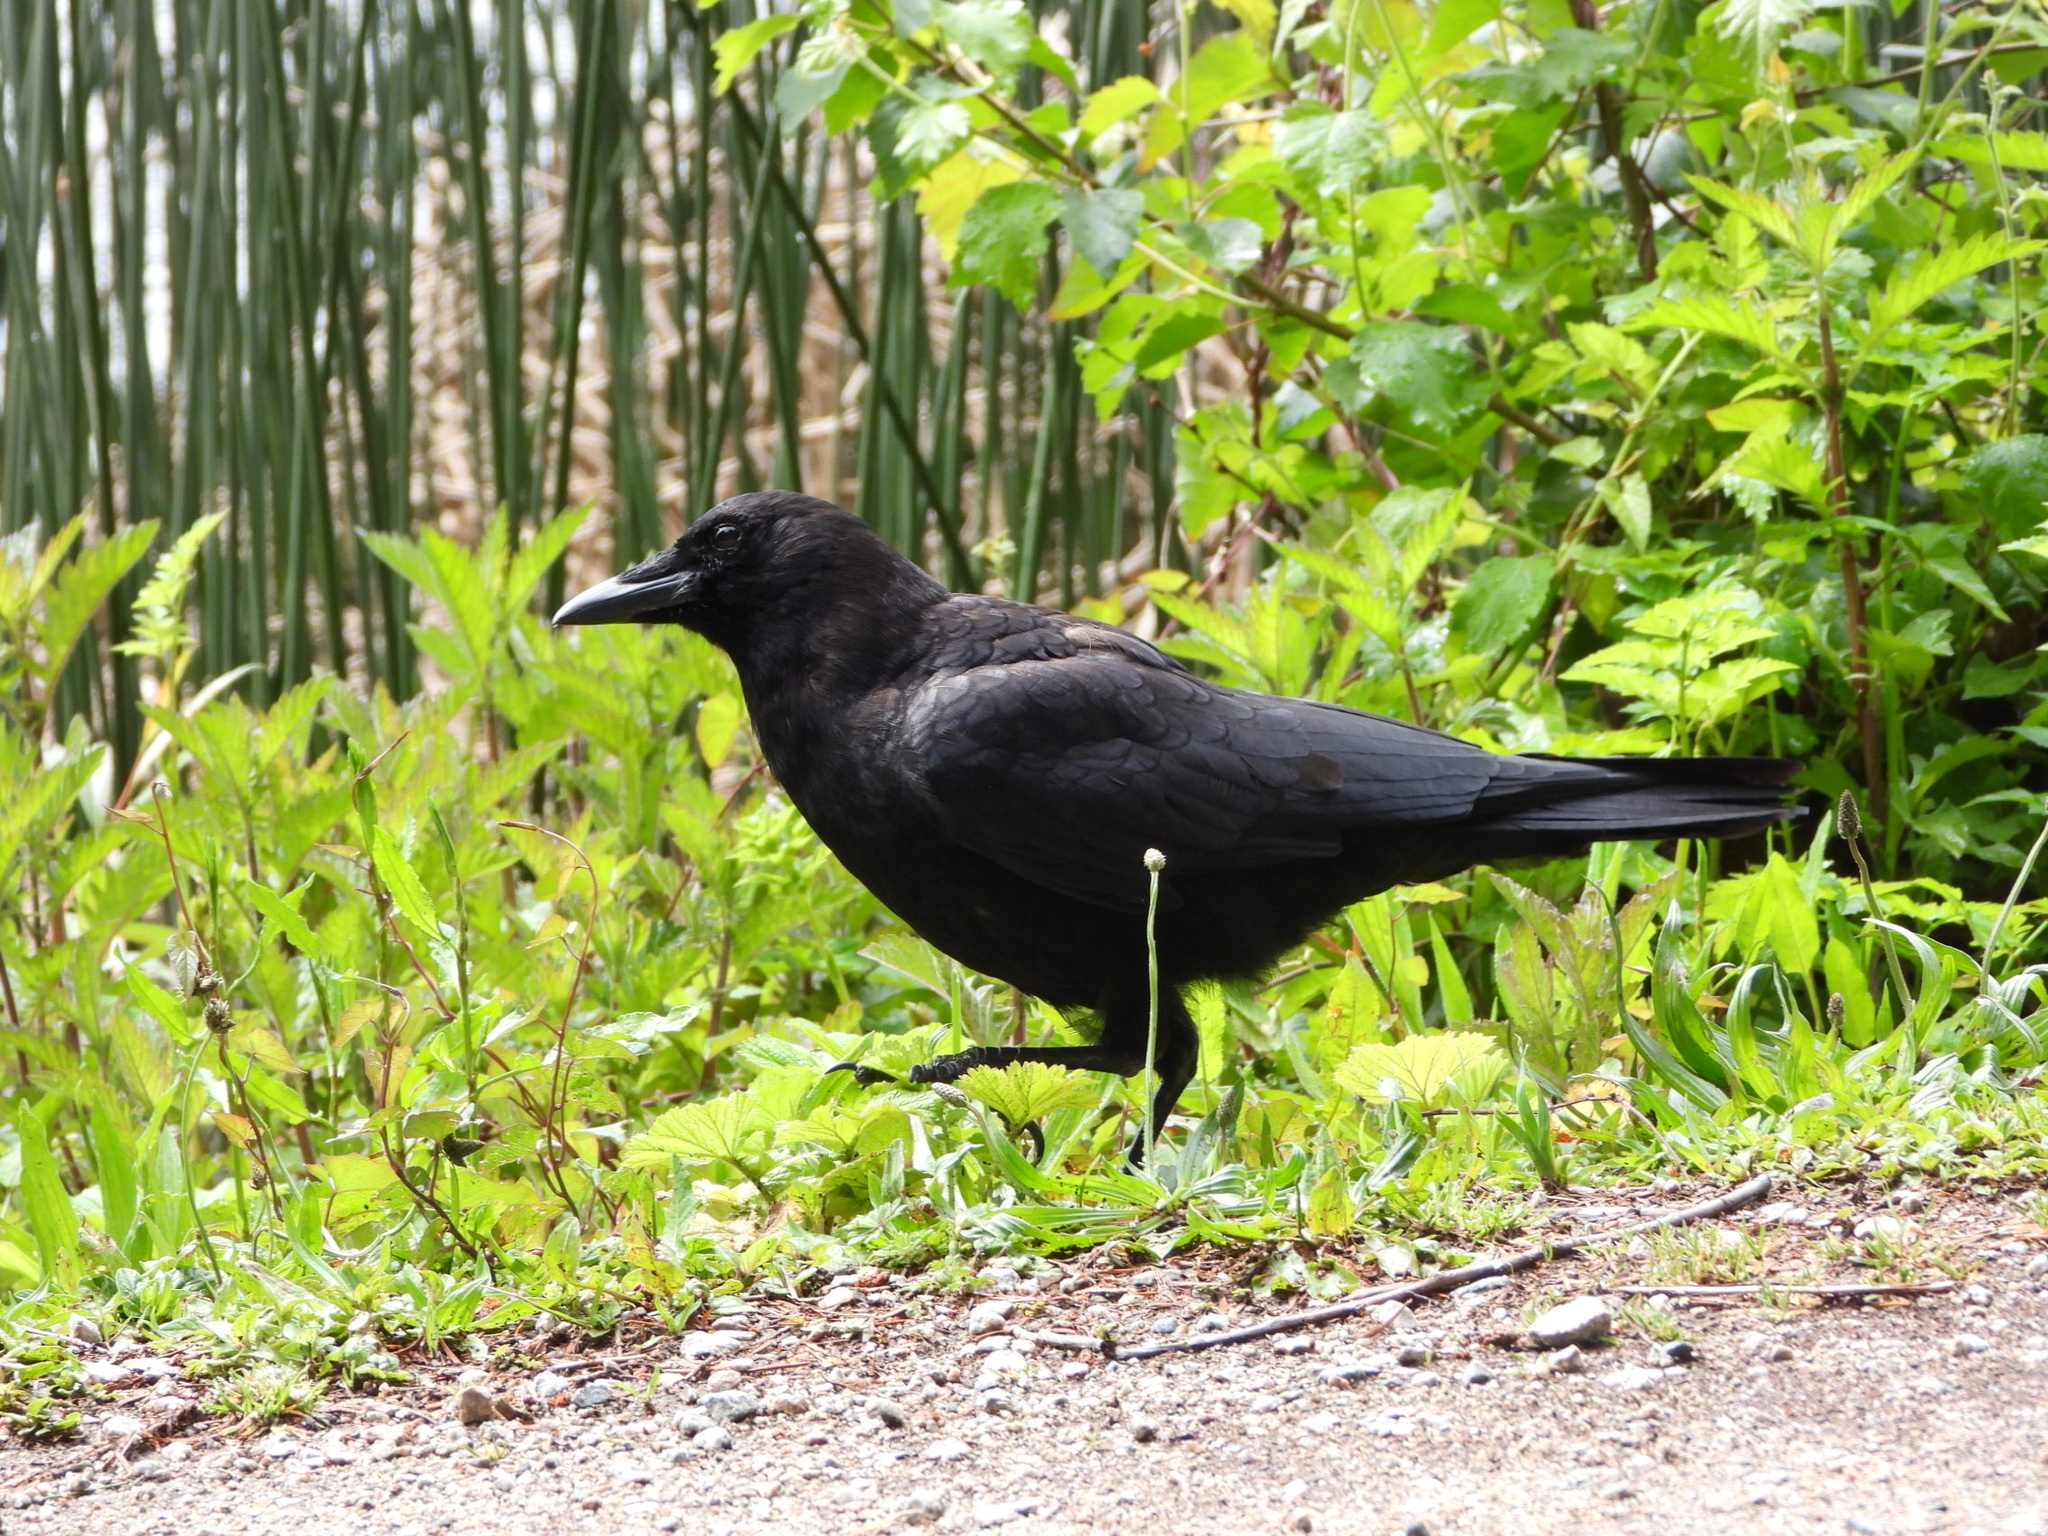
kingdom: Animalia
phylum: Chordata
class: Aves
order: Passeriformes
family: Corvidae
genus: Corvus
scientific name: Corvus brachyrhynchos
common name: American crow
